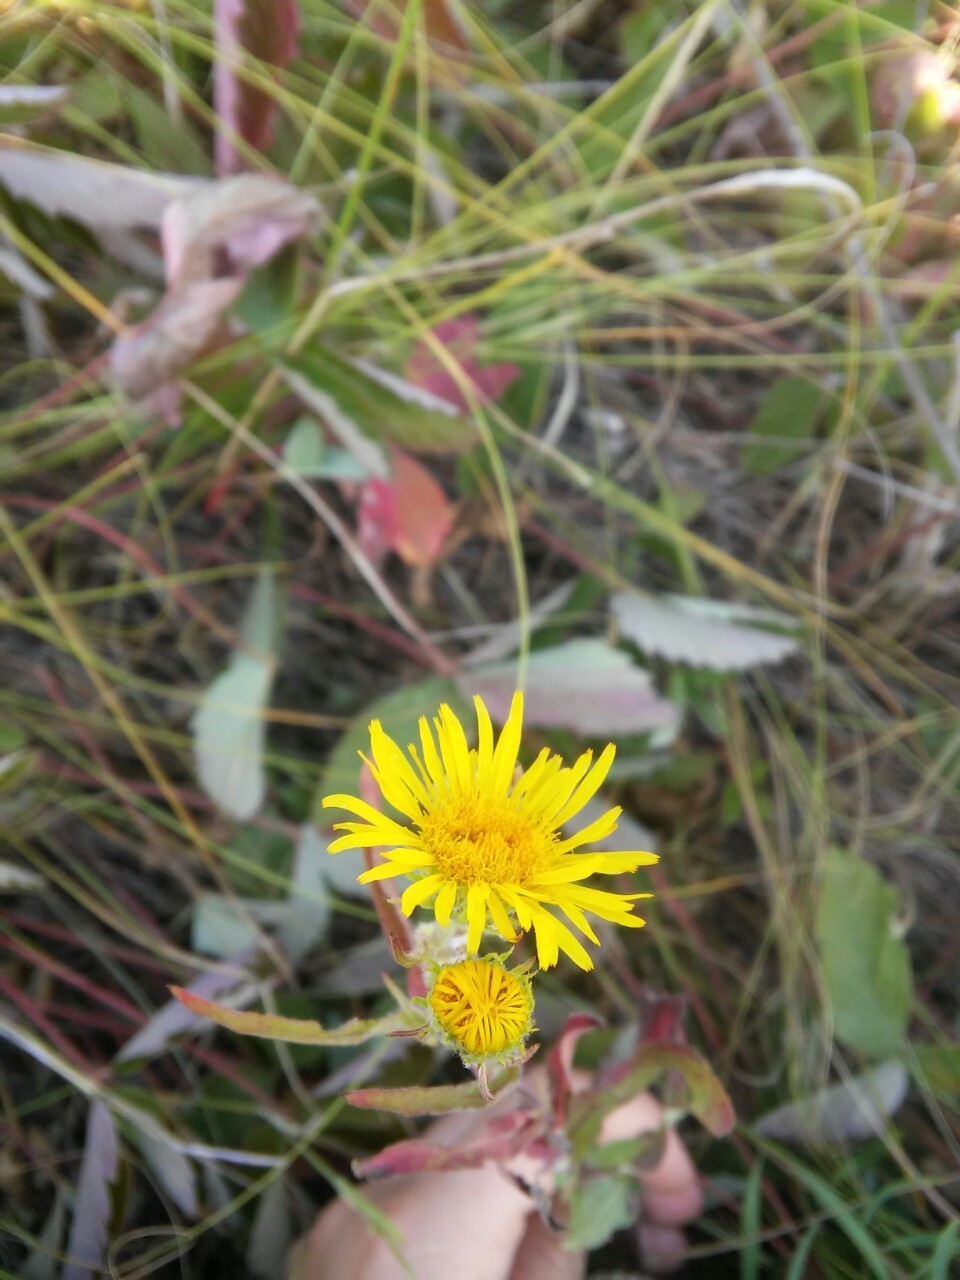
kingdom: Plantae
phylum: Tracheophyta
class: Magnoliopsida
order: Asterales
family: Asteraceae
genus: Pentanema
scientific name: Pentanema britannicum
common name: British elecampane
